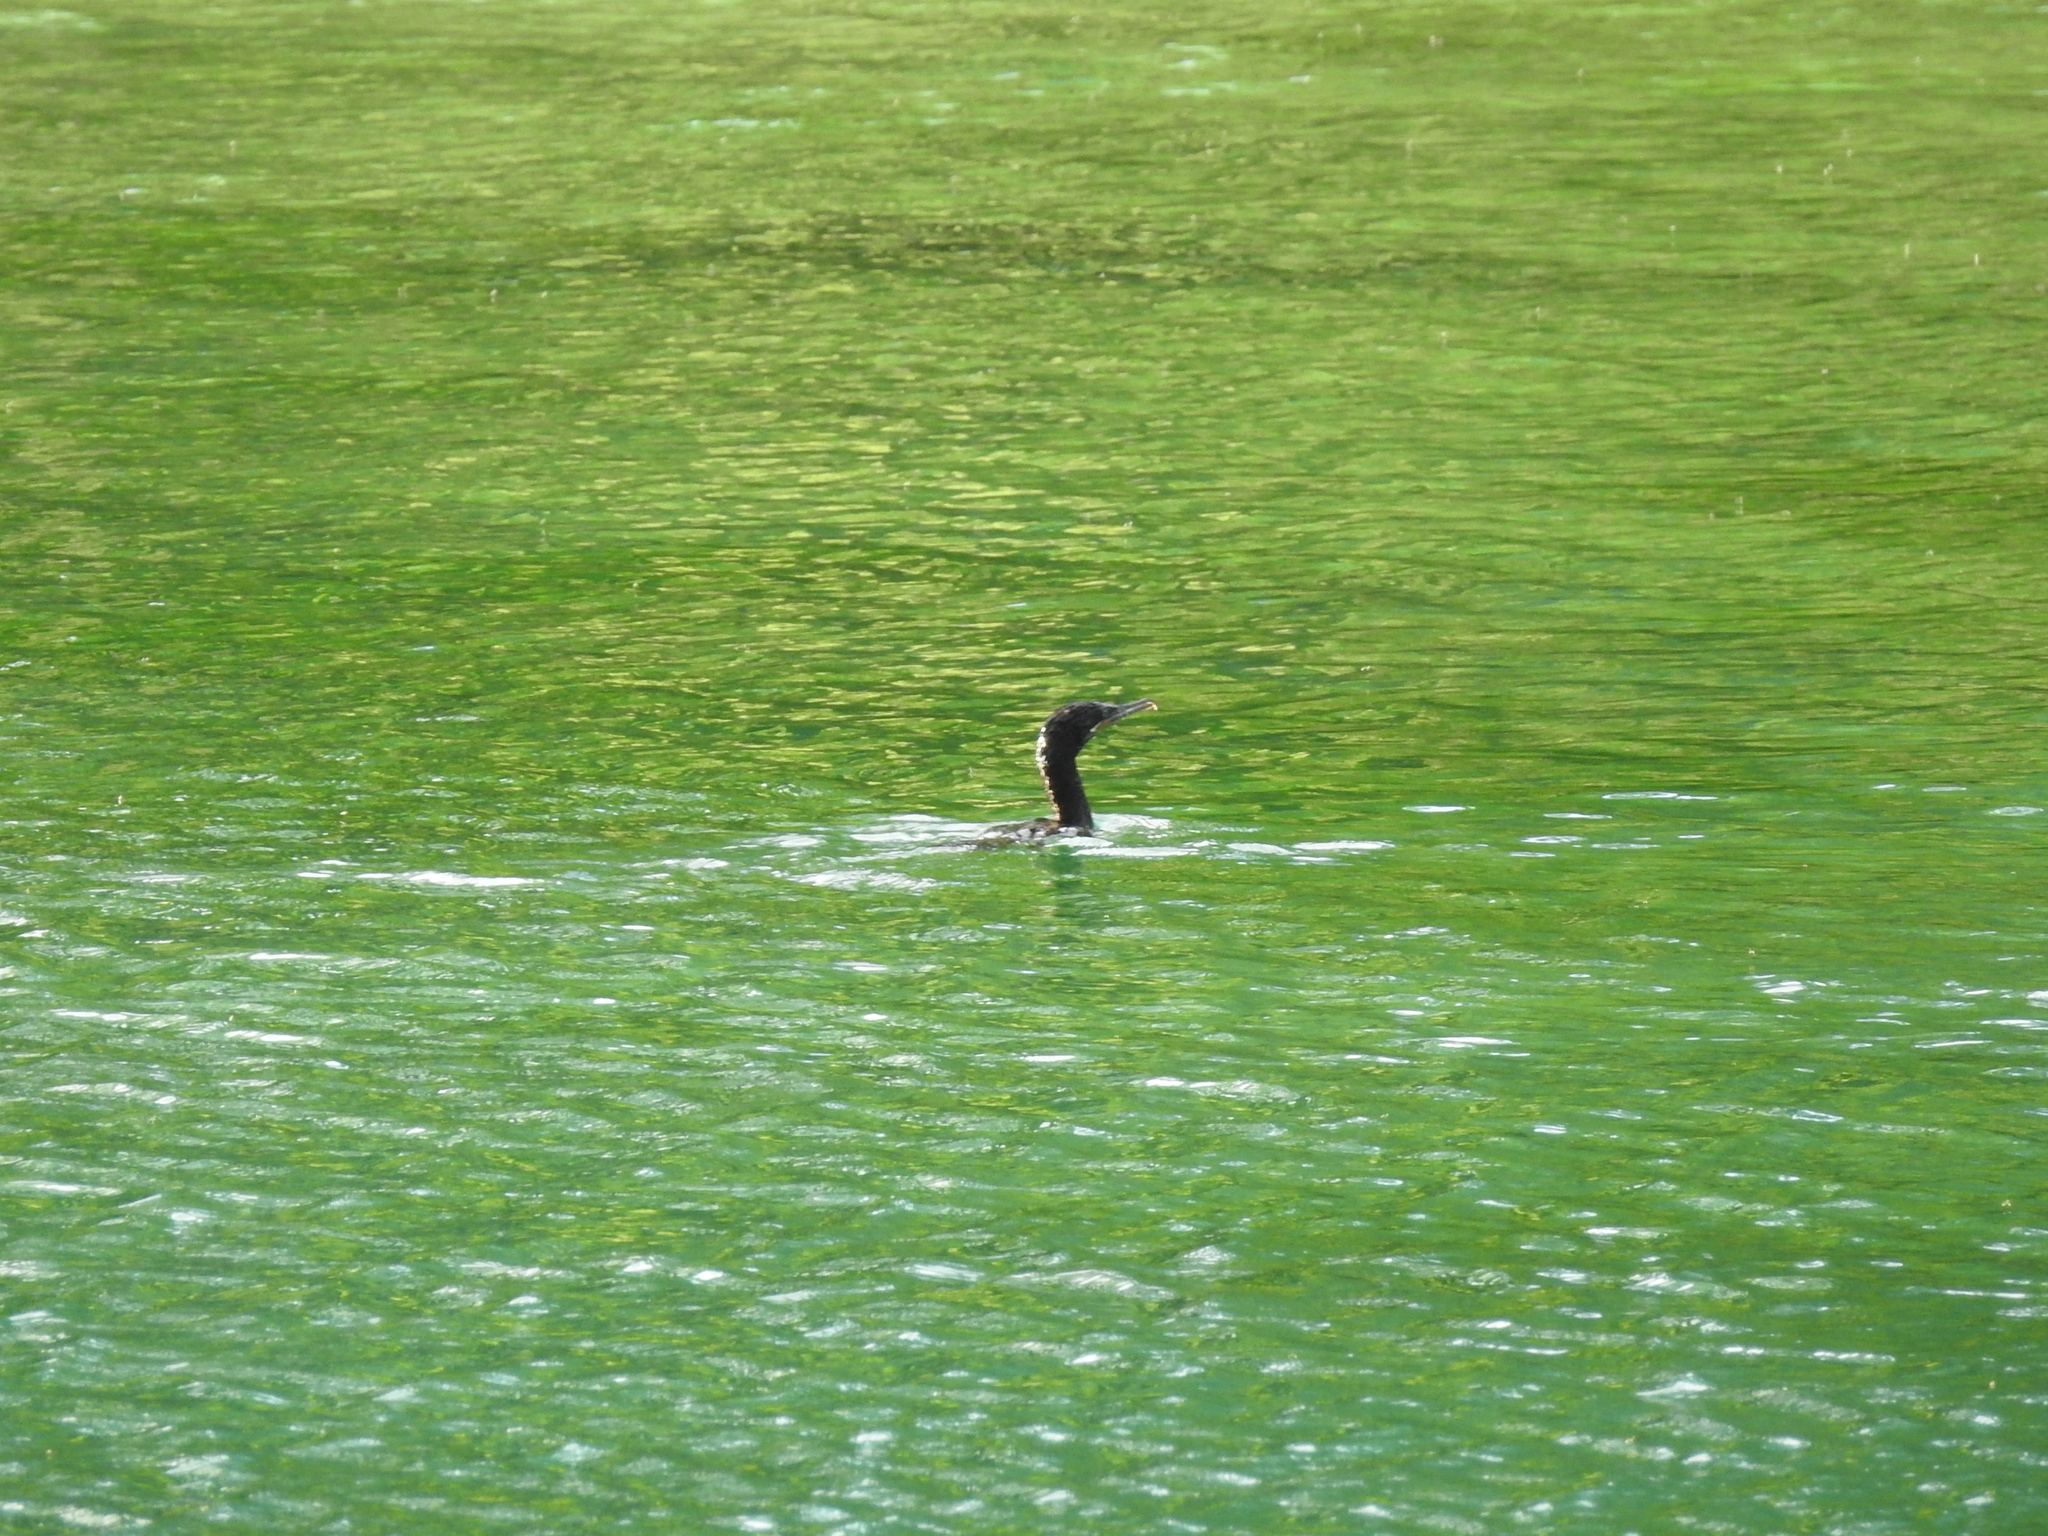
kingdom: Animalia
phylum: Chordata
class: Aves
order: Suliformes
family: Phalacrocoracidae
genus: Phalacrocorax
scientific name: Phalacrocorax brasilianus
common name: Neotropic cormorant
